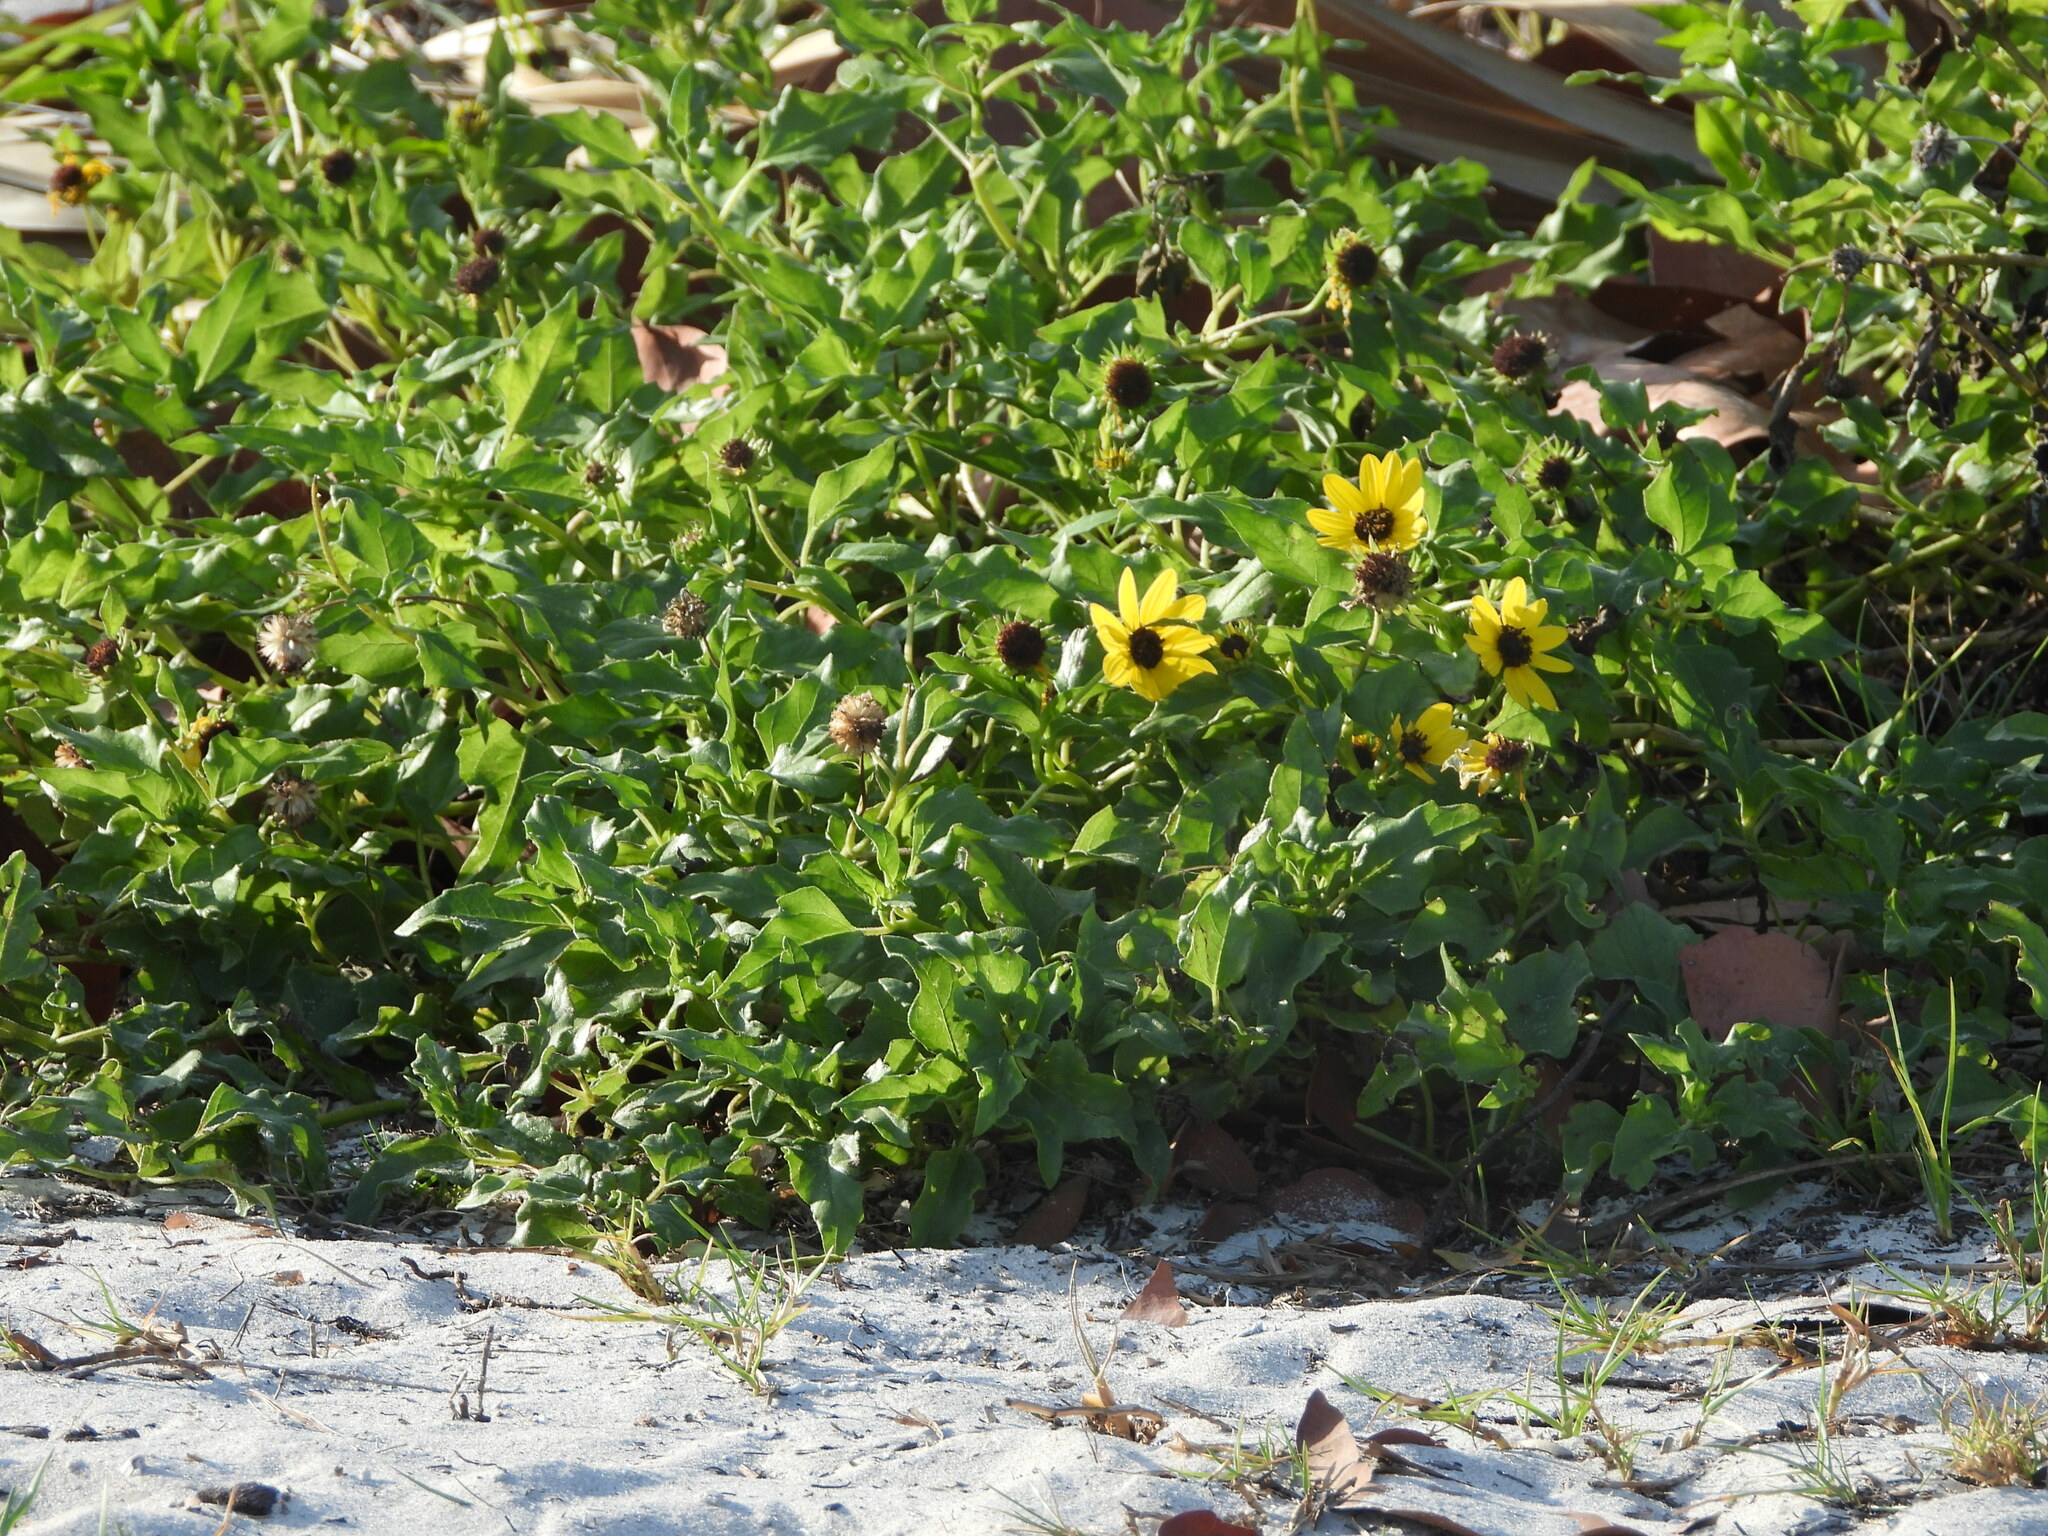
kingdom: Plantae
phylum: Tracheophyta
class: Magnoliopsida
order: Asterales
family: Asteraceae
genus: Helianthus
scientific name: Helianthus debilis
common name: Weak sunflower
